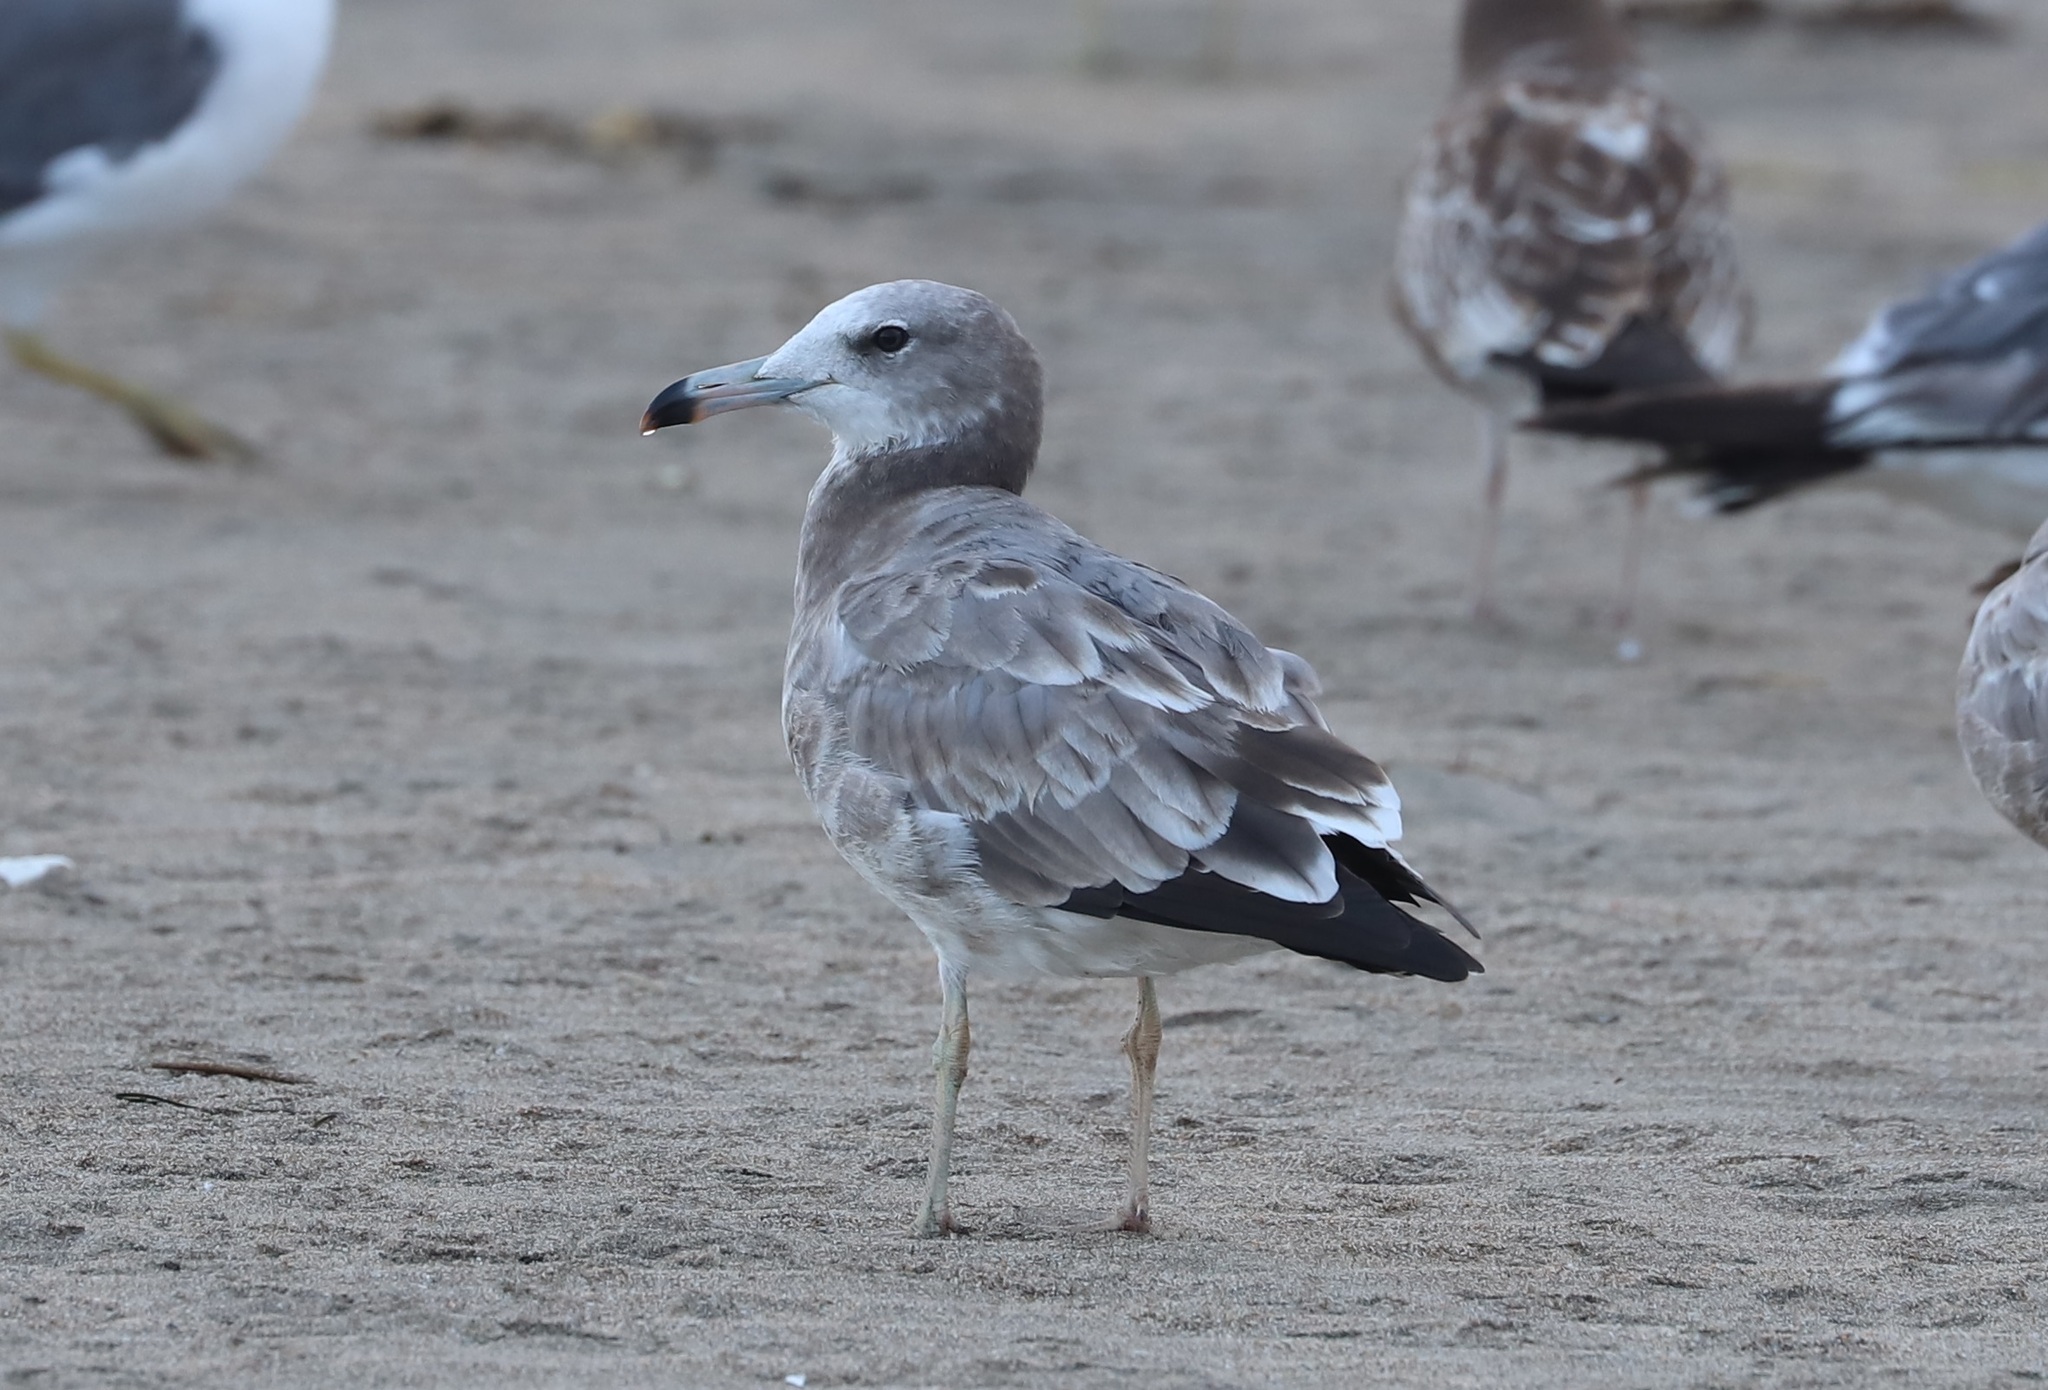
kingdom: Animalia
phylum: Chordata
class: Aves
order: Charadriiformes
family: Laridae
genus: Larus
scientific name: Larus crassirostris
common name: Black-tailed gull
